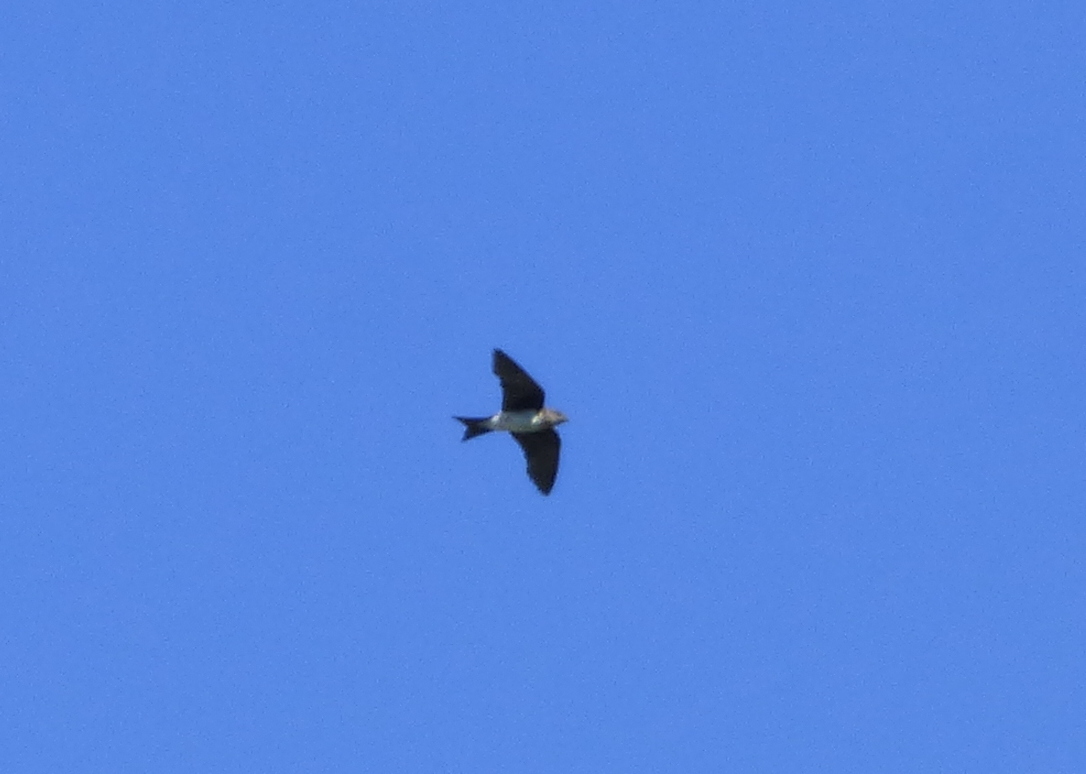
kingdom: Animalia
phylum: Chordata
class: Aves
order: Passeriformes
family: Hirundinidae
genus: Progne
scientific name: Progne chalybea
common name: Grey-breasted martin
